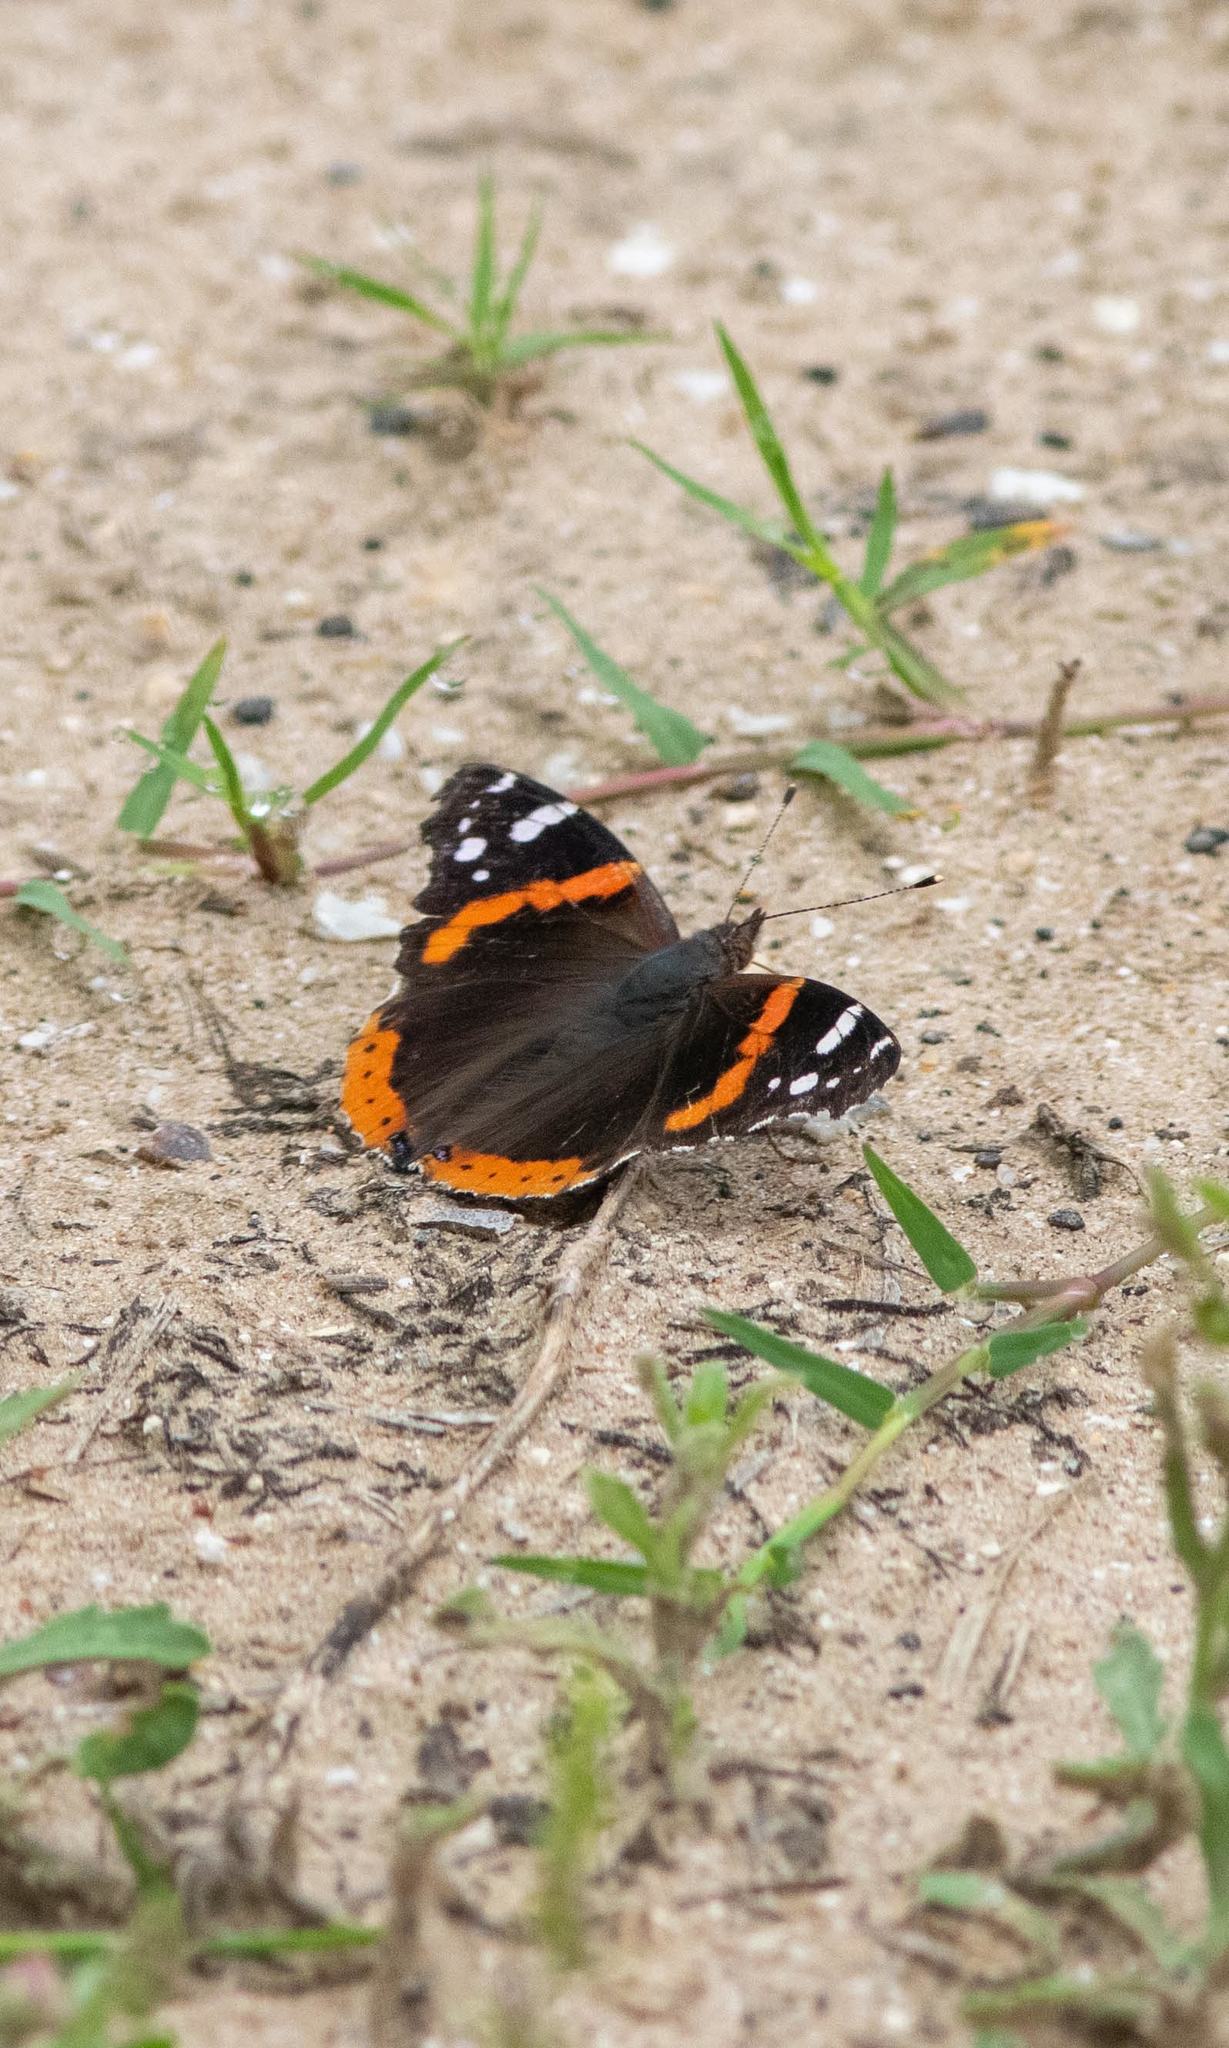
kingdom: Animalia
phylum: Arthropoda
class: Insecta
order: Lepidoptera
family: Nymphalidae
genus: Vanessa
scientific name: Vanessa atalanta
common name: Red admiral
